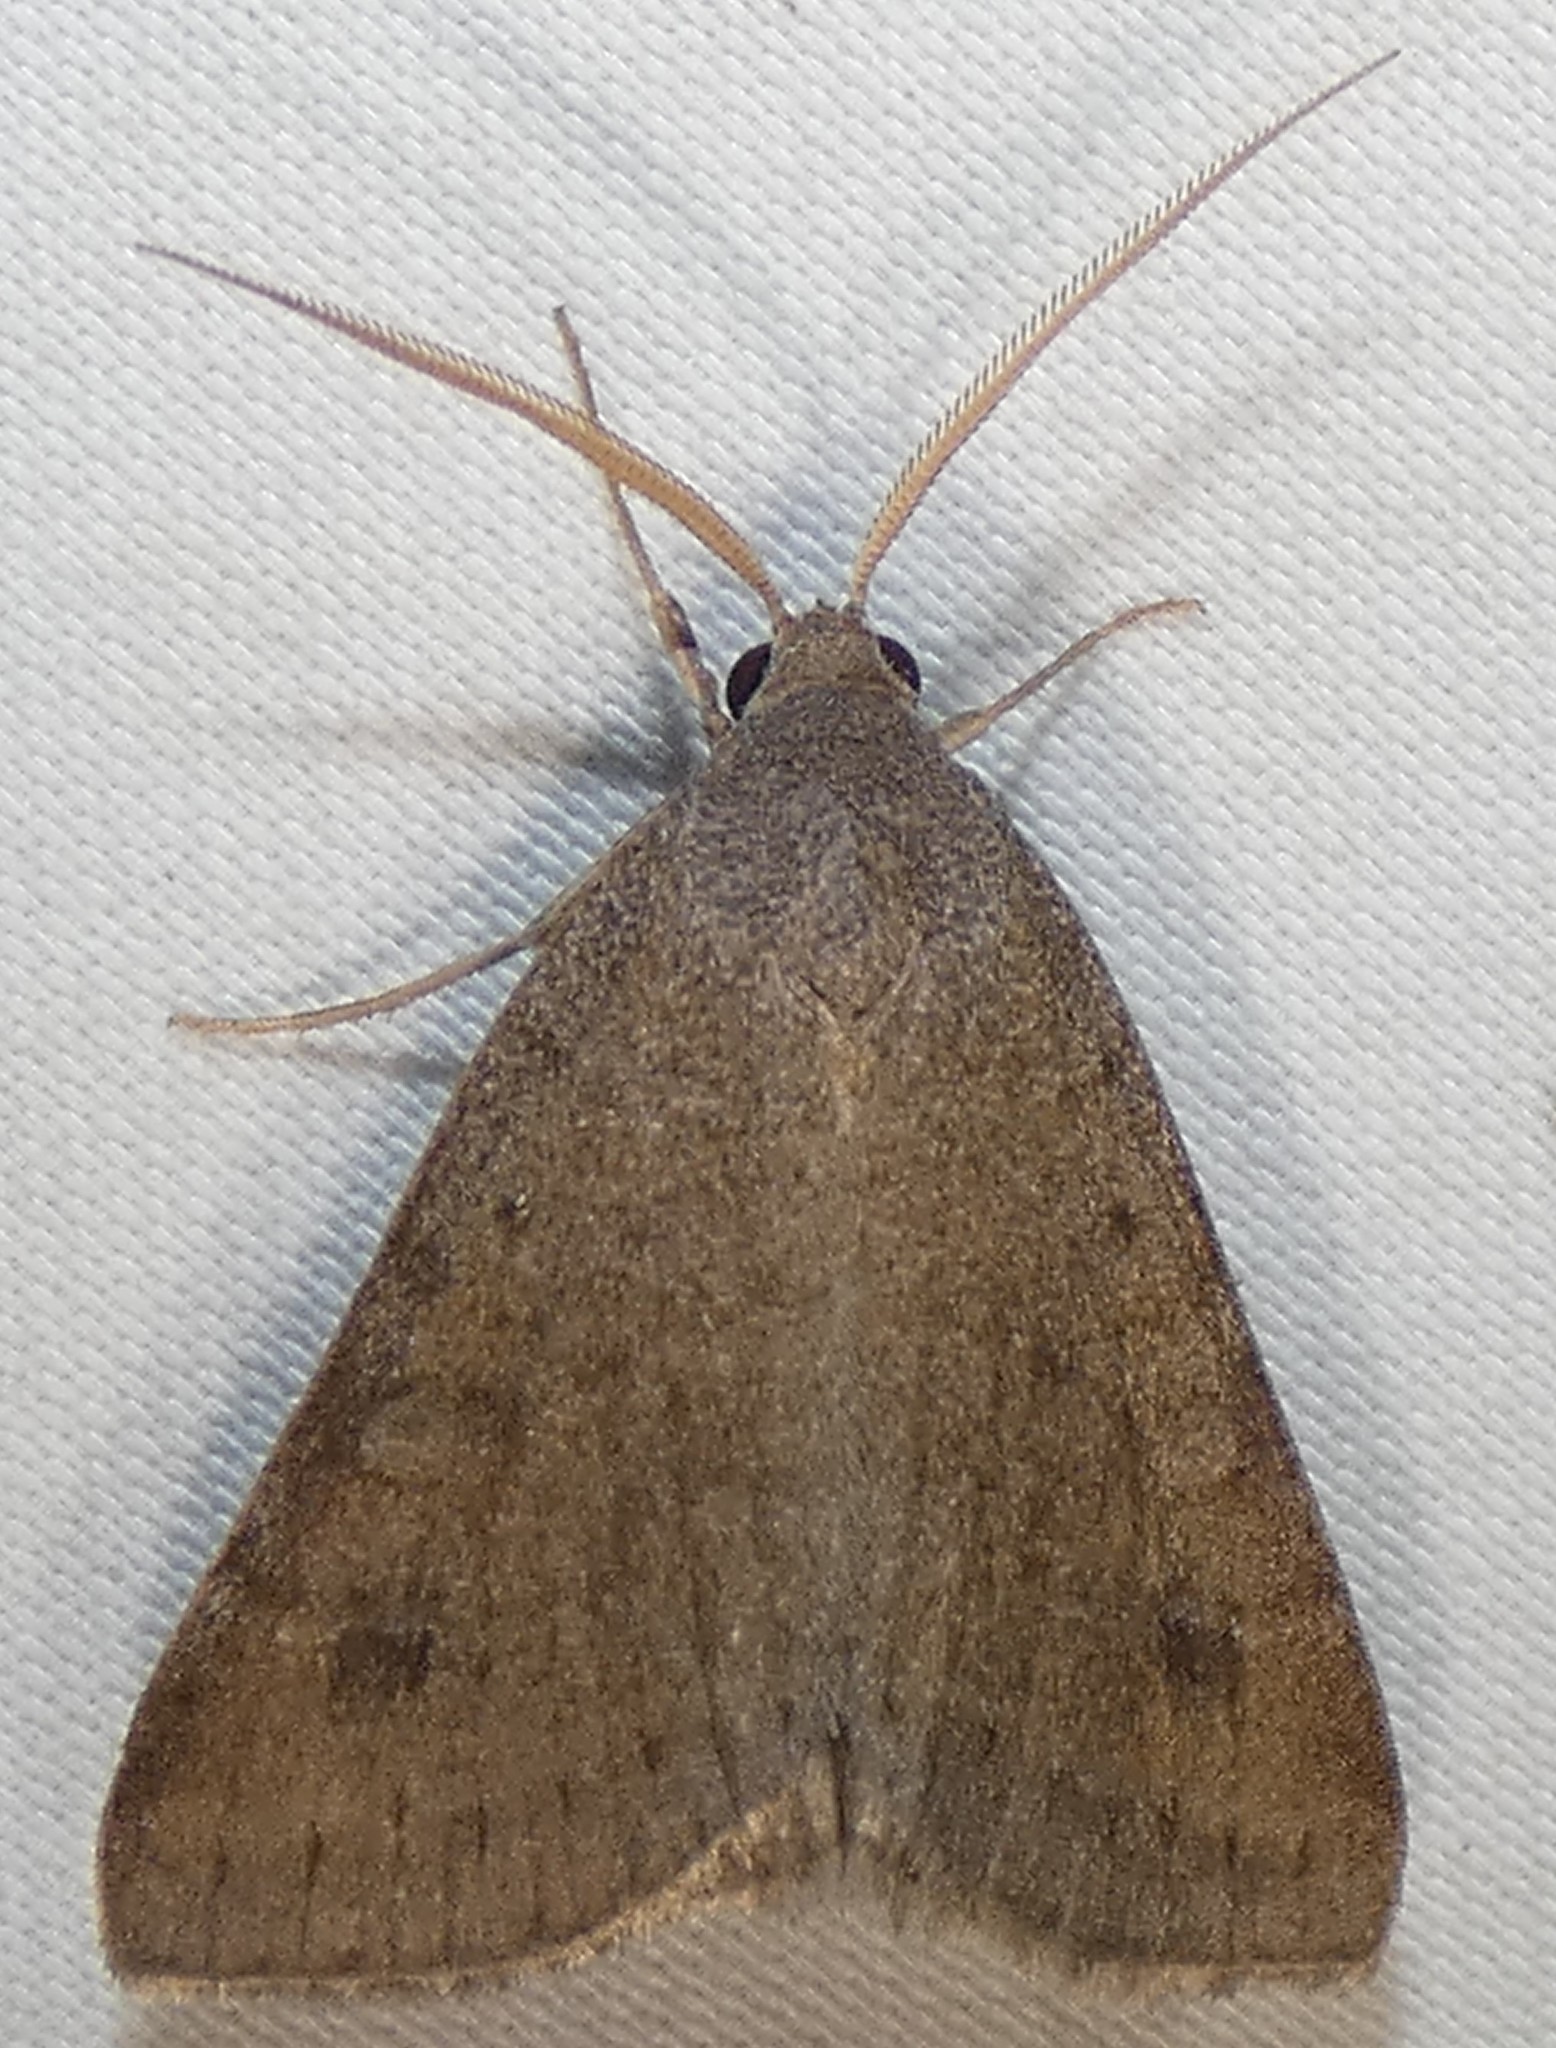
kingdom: Animalia
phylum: Arthropoda
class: Insecta
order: Lepidoptera
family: Erebidae
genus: Caenurgia
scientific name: Caenurgia chloropha
